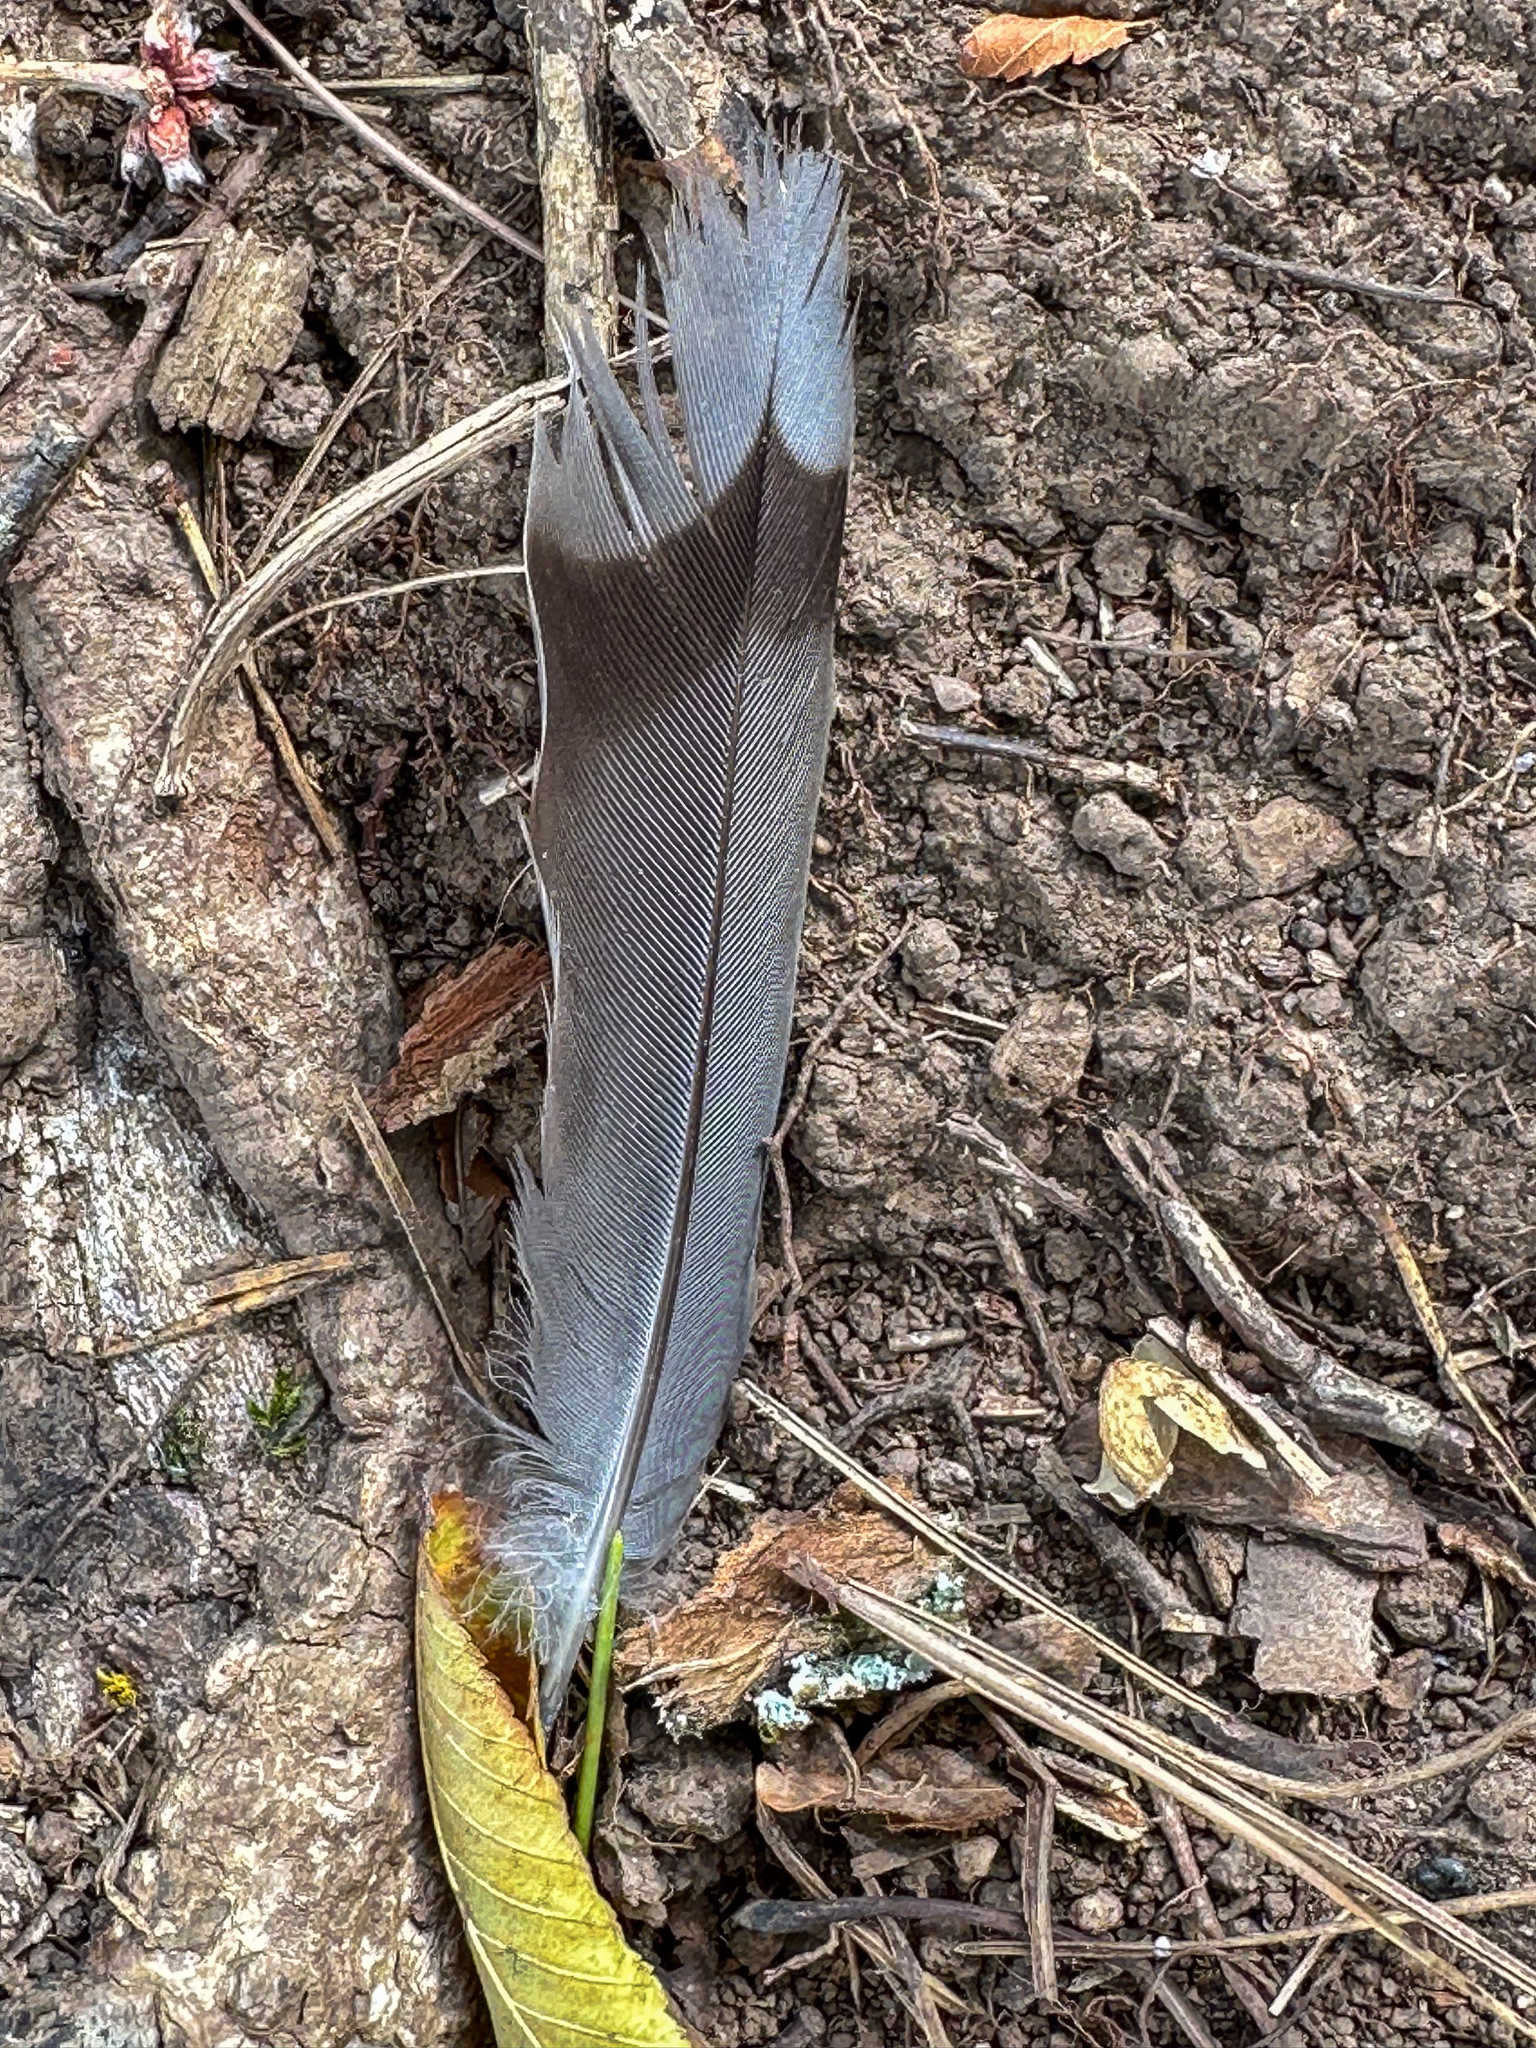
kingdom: Animalia
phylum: Chordata
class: Aves
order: Columbiformes
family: Columbidae
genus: Zenaida
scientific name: Zenaida macroura
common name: Mourning dove
